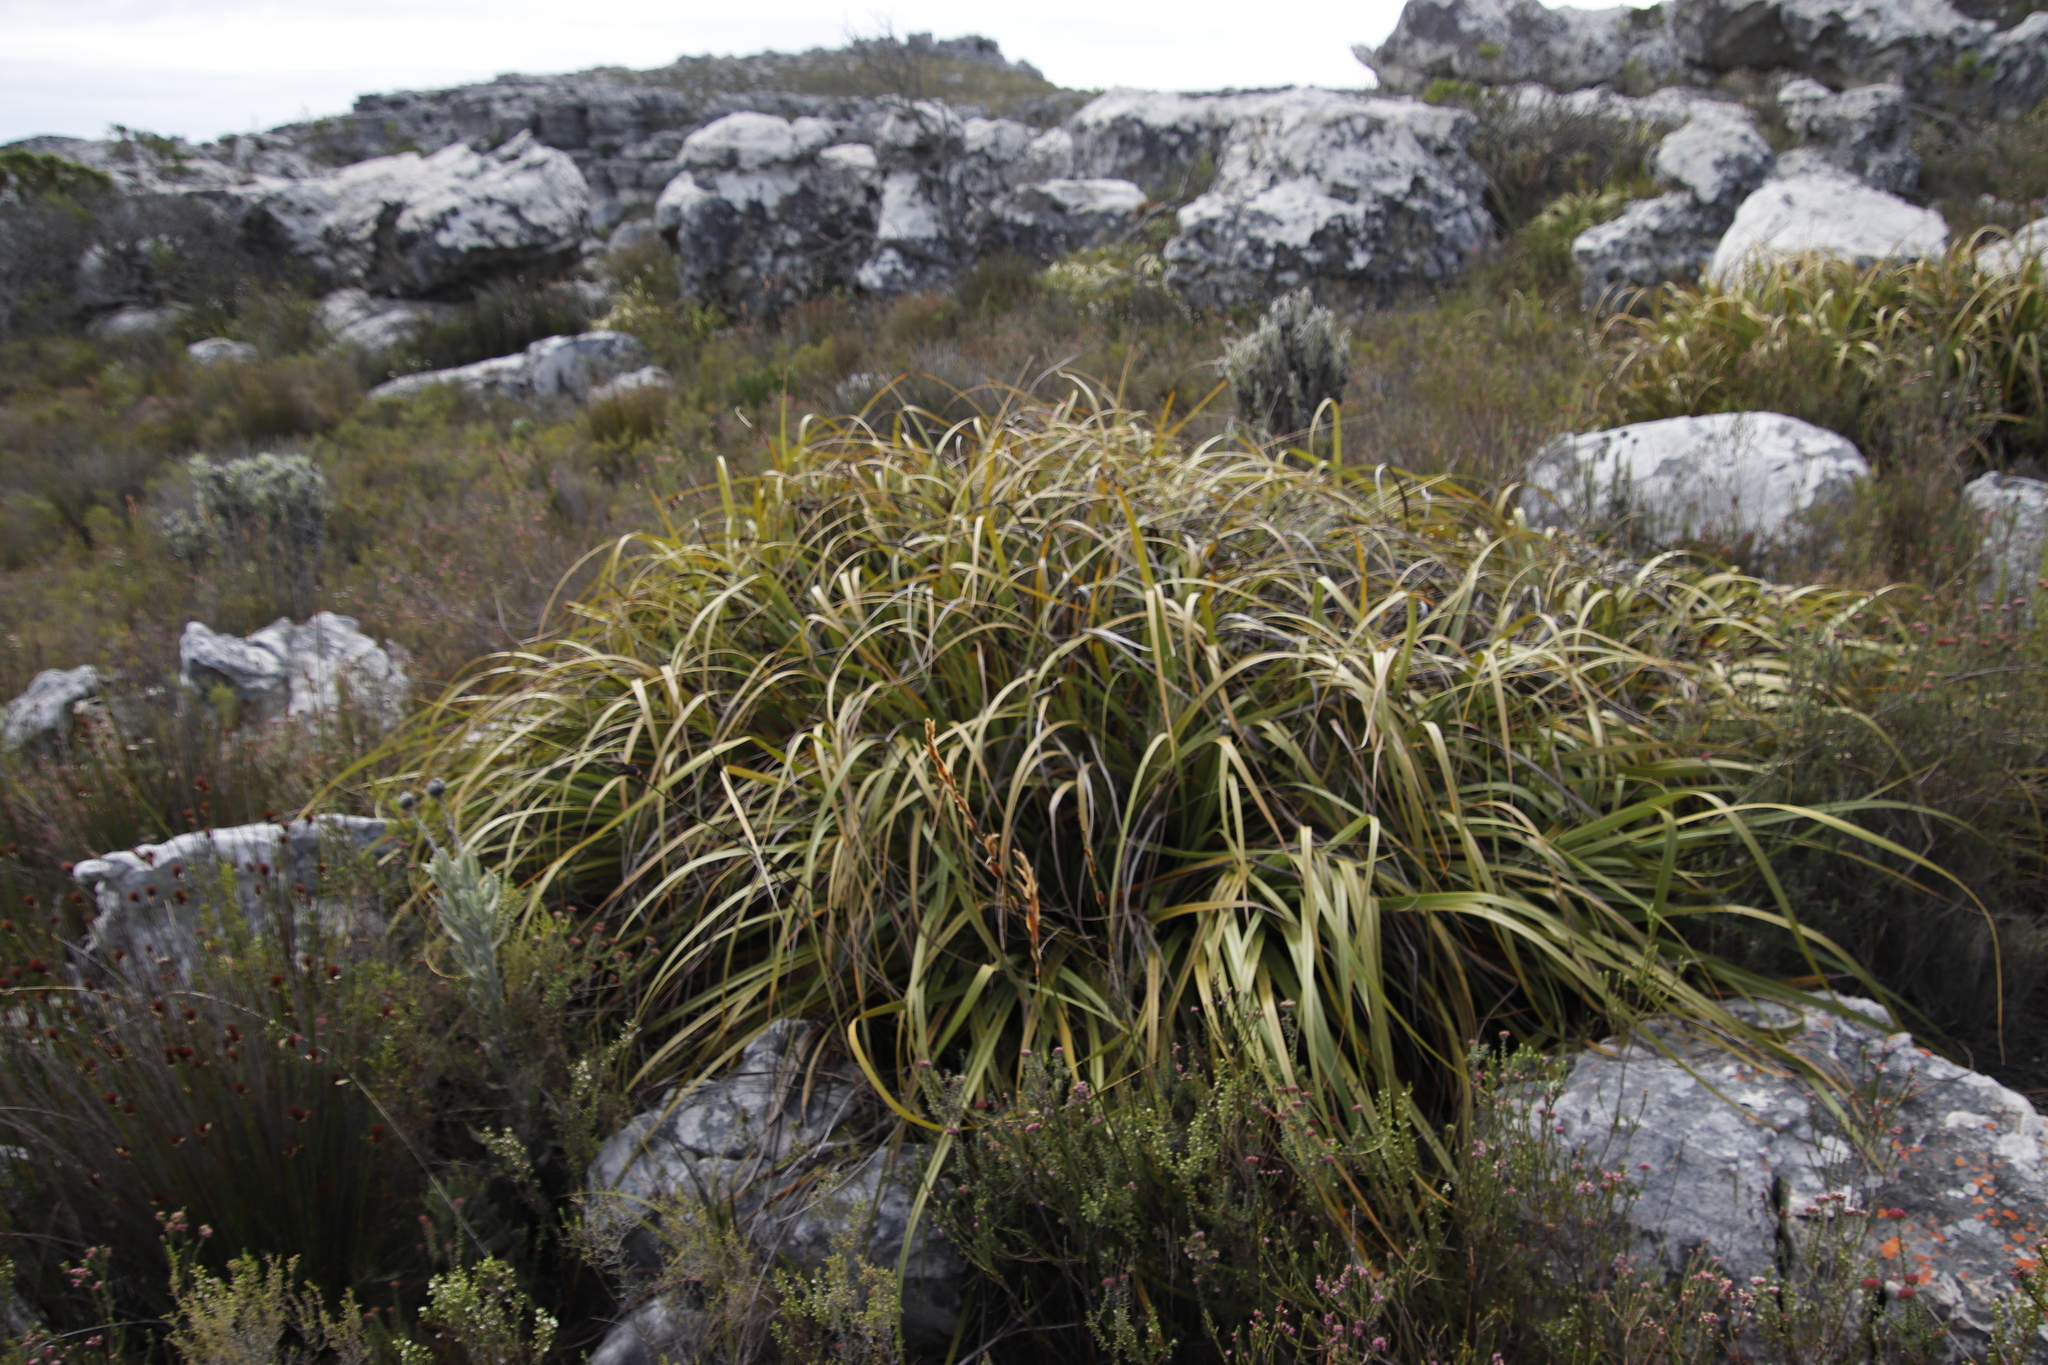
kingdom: Plantae
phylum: Tracheophyta
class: Liliopsida
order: Poales
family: Cyperaceae
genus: Tetraria
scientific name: Tetraria thermalis
